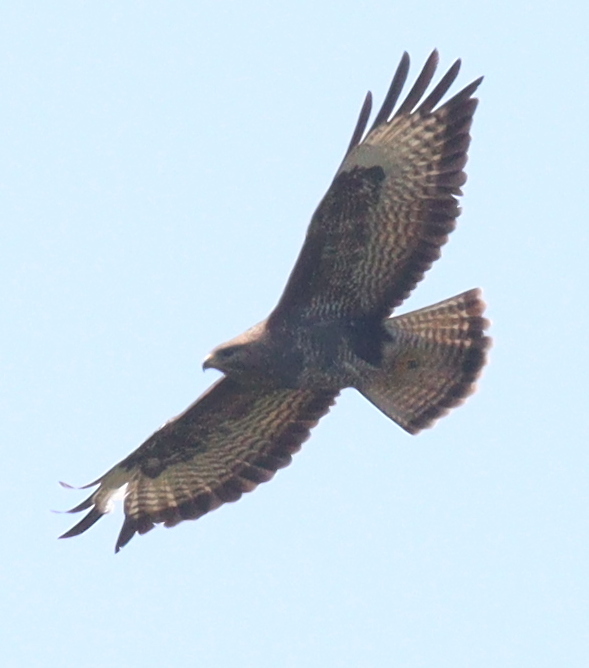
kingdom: Animalia
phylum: Chordata
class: Aves
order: Accipitriformes
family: Accipitridae
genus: Buteo
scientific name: Buteo buteo
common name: Common buzzard
